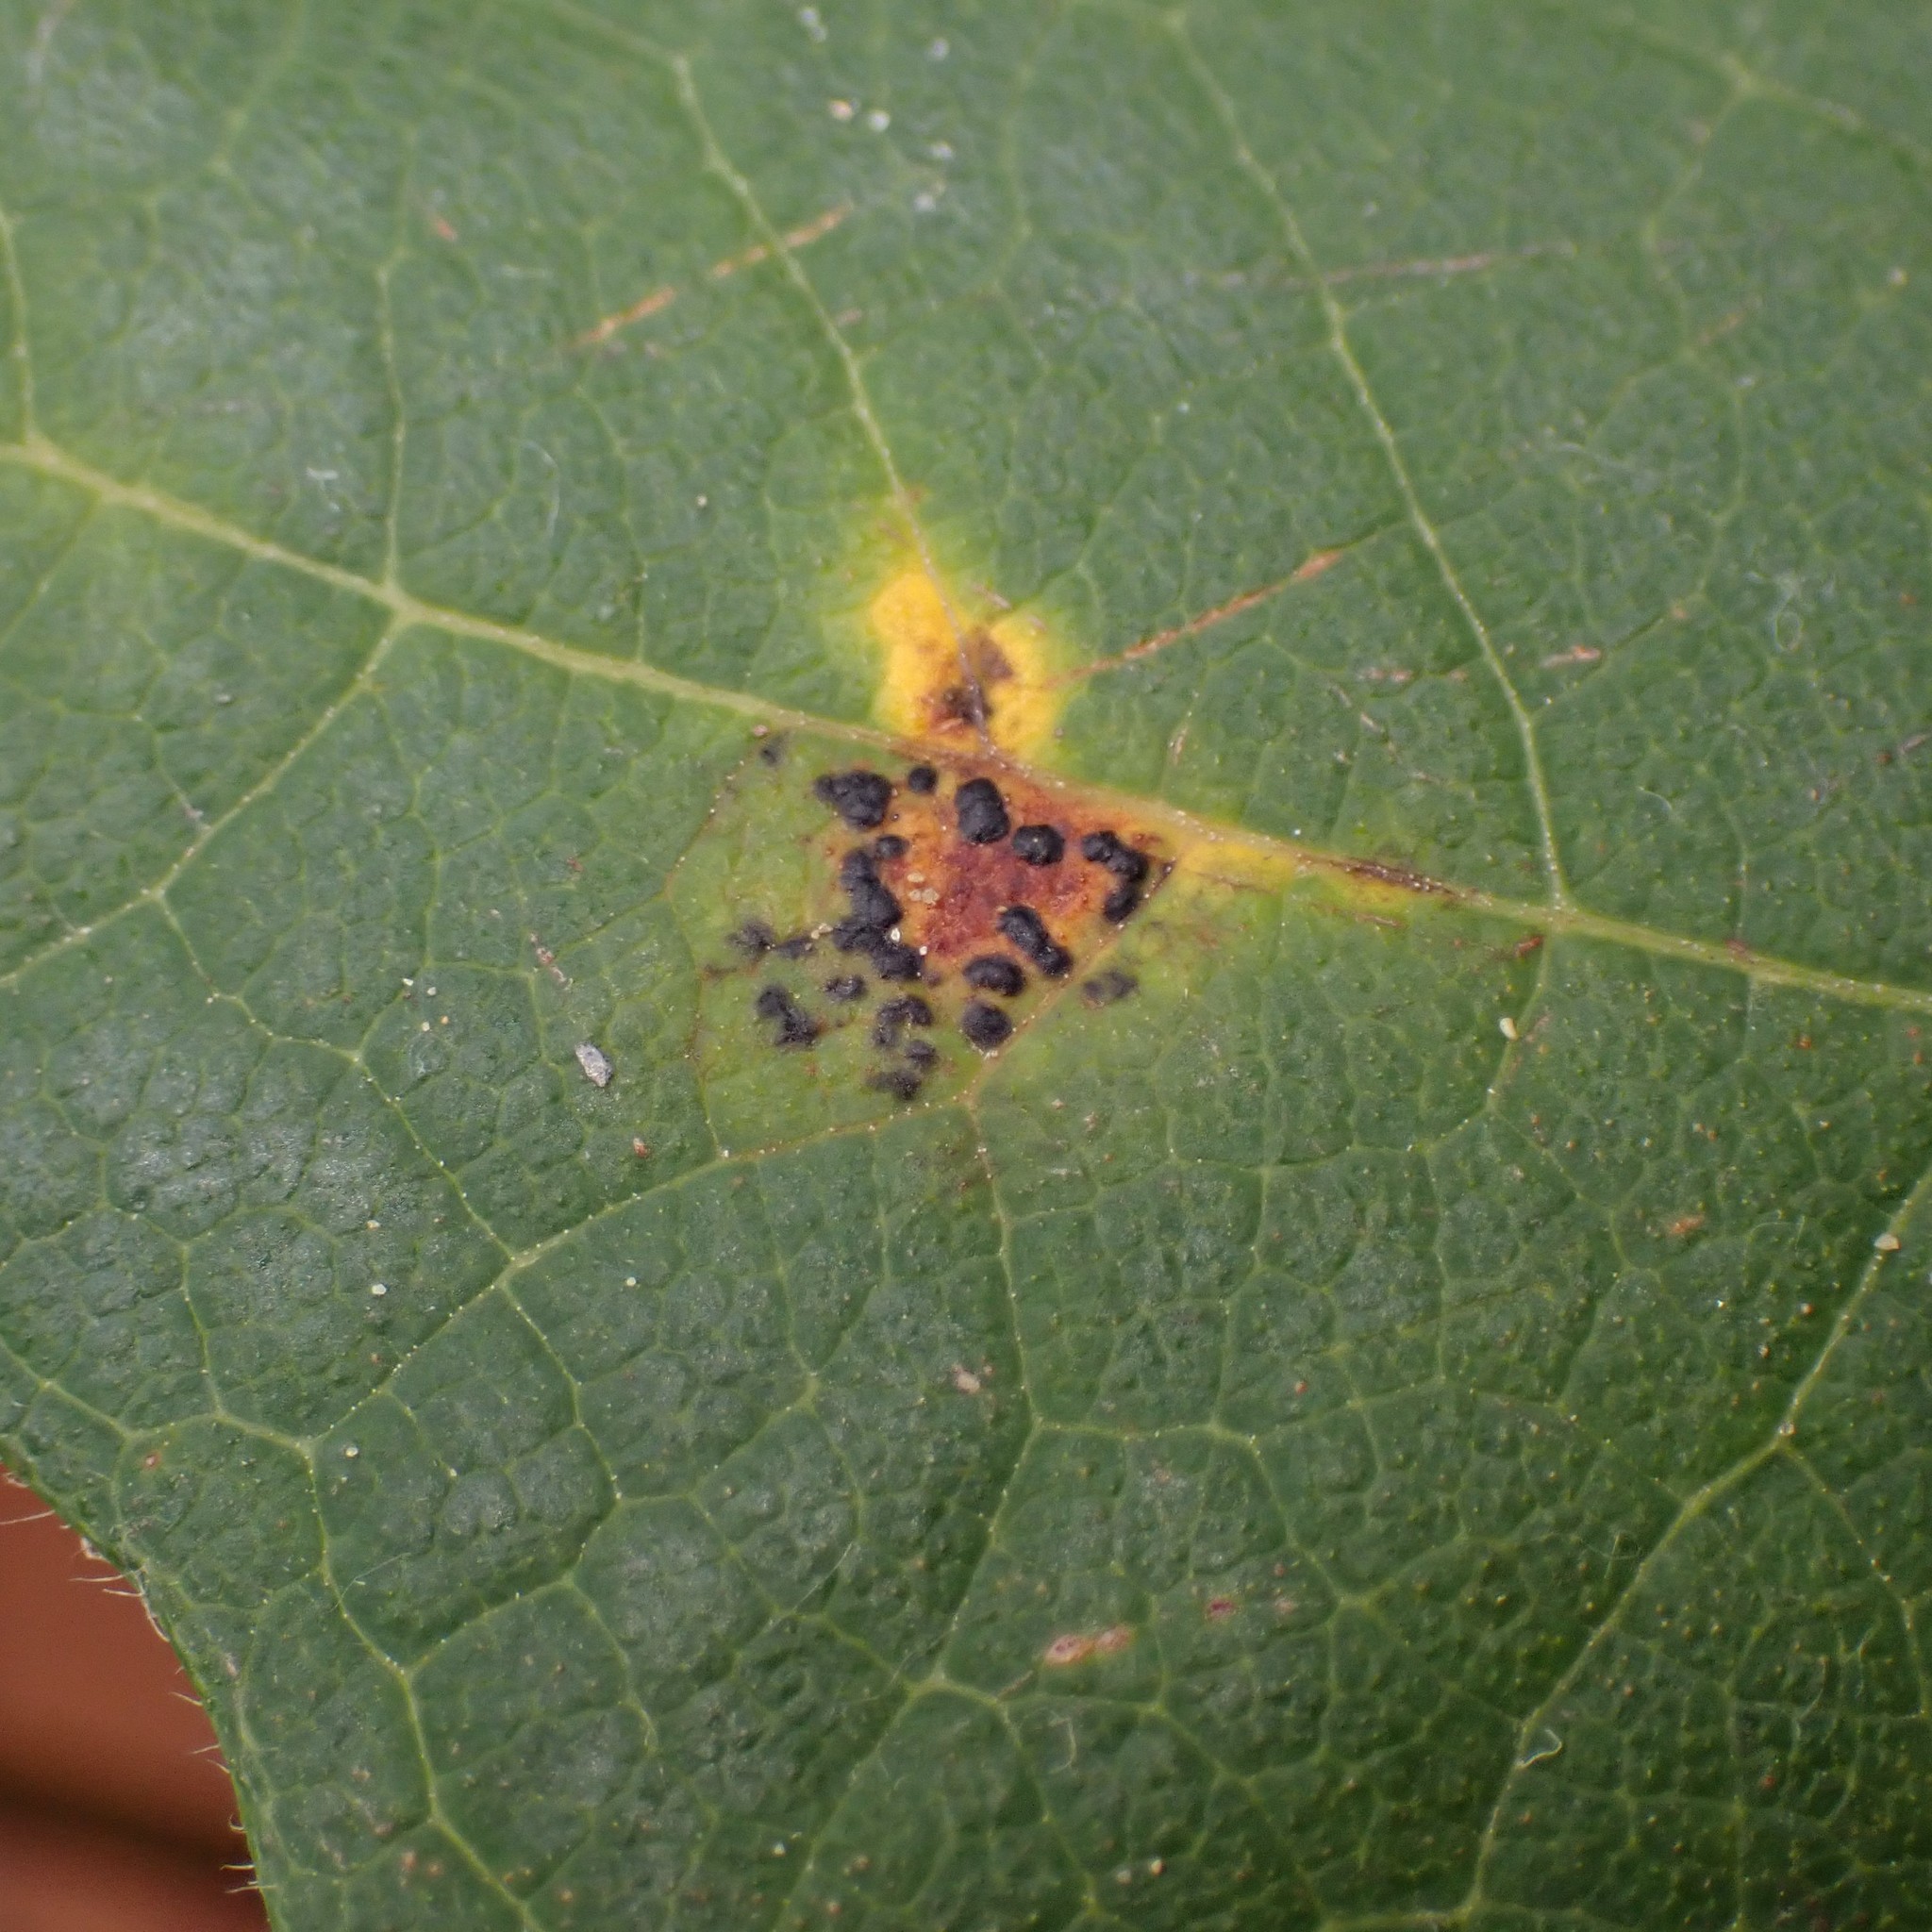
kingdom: Fungi
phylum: Ascomycota
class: Leotiomycetes
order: Rhytismatales
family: Rhytismataceae
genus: Rhytisma
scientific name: Rhytisma punctatum
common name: Speckled tar spot
